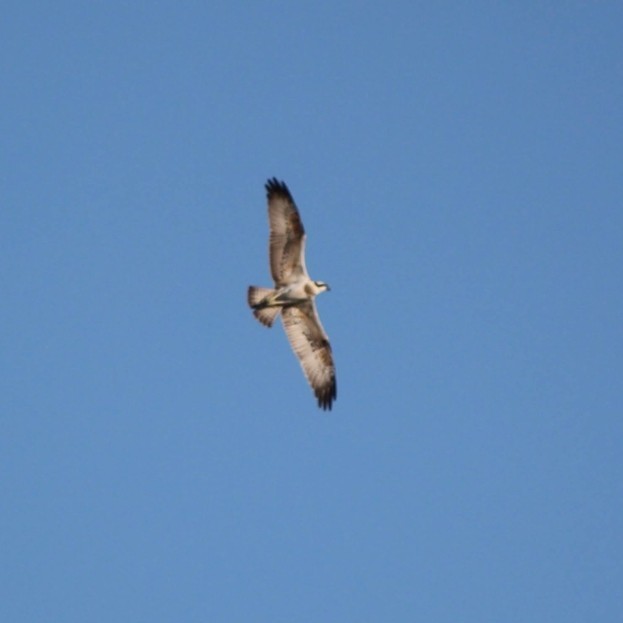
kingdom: Animalia
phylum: Chordata
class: Aves
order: Accipitriformes
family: Pandionidae
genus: Pandion
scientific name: Pandion haliaetus
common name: Osprey
